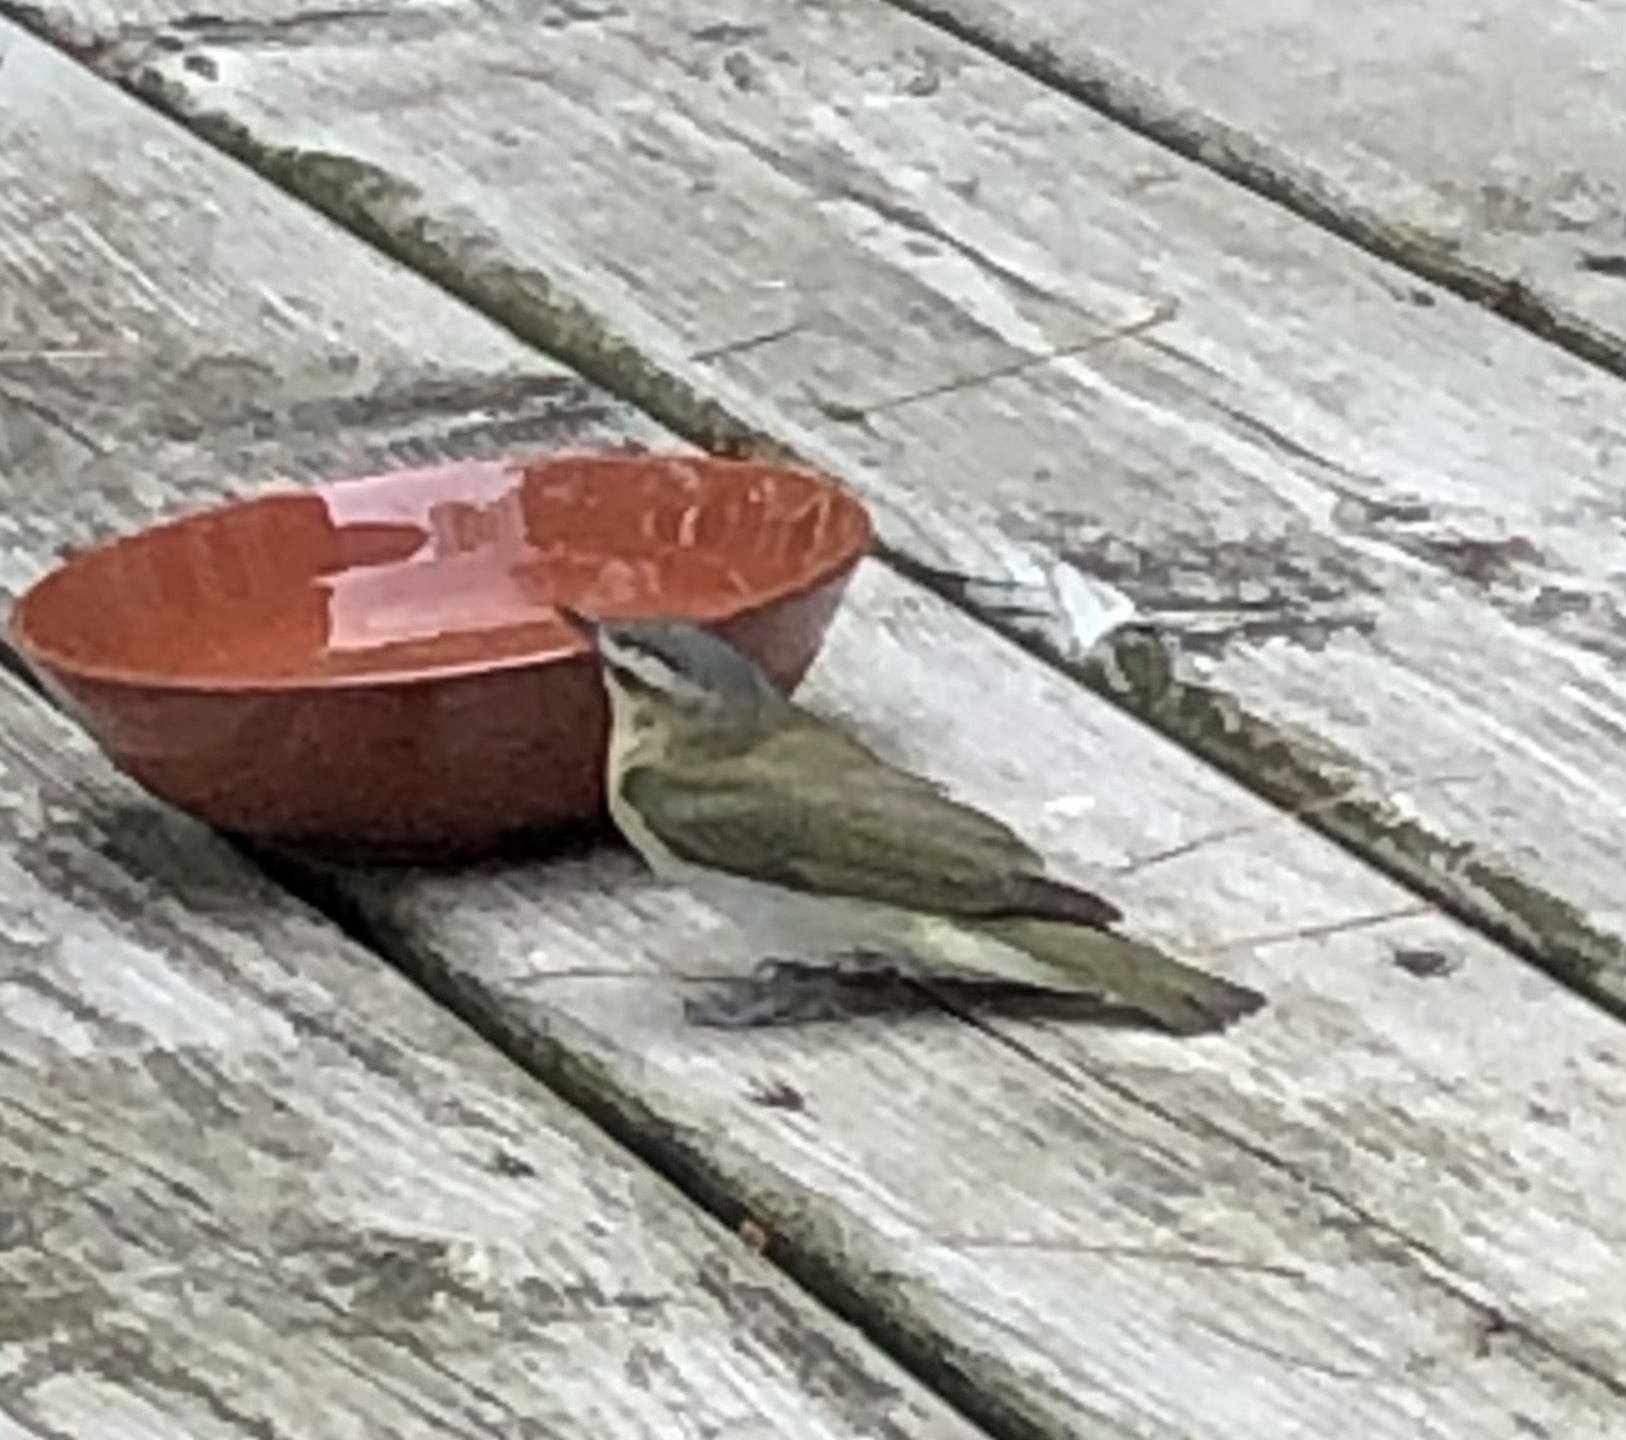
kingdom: Animalia
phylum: Chordata
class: Aves
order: Passeriformes
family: Vireonidae
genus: Vireo
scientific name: Vireo olivaceus
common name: Red-eyed vireo
